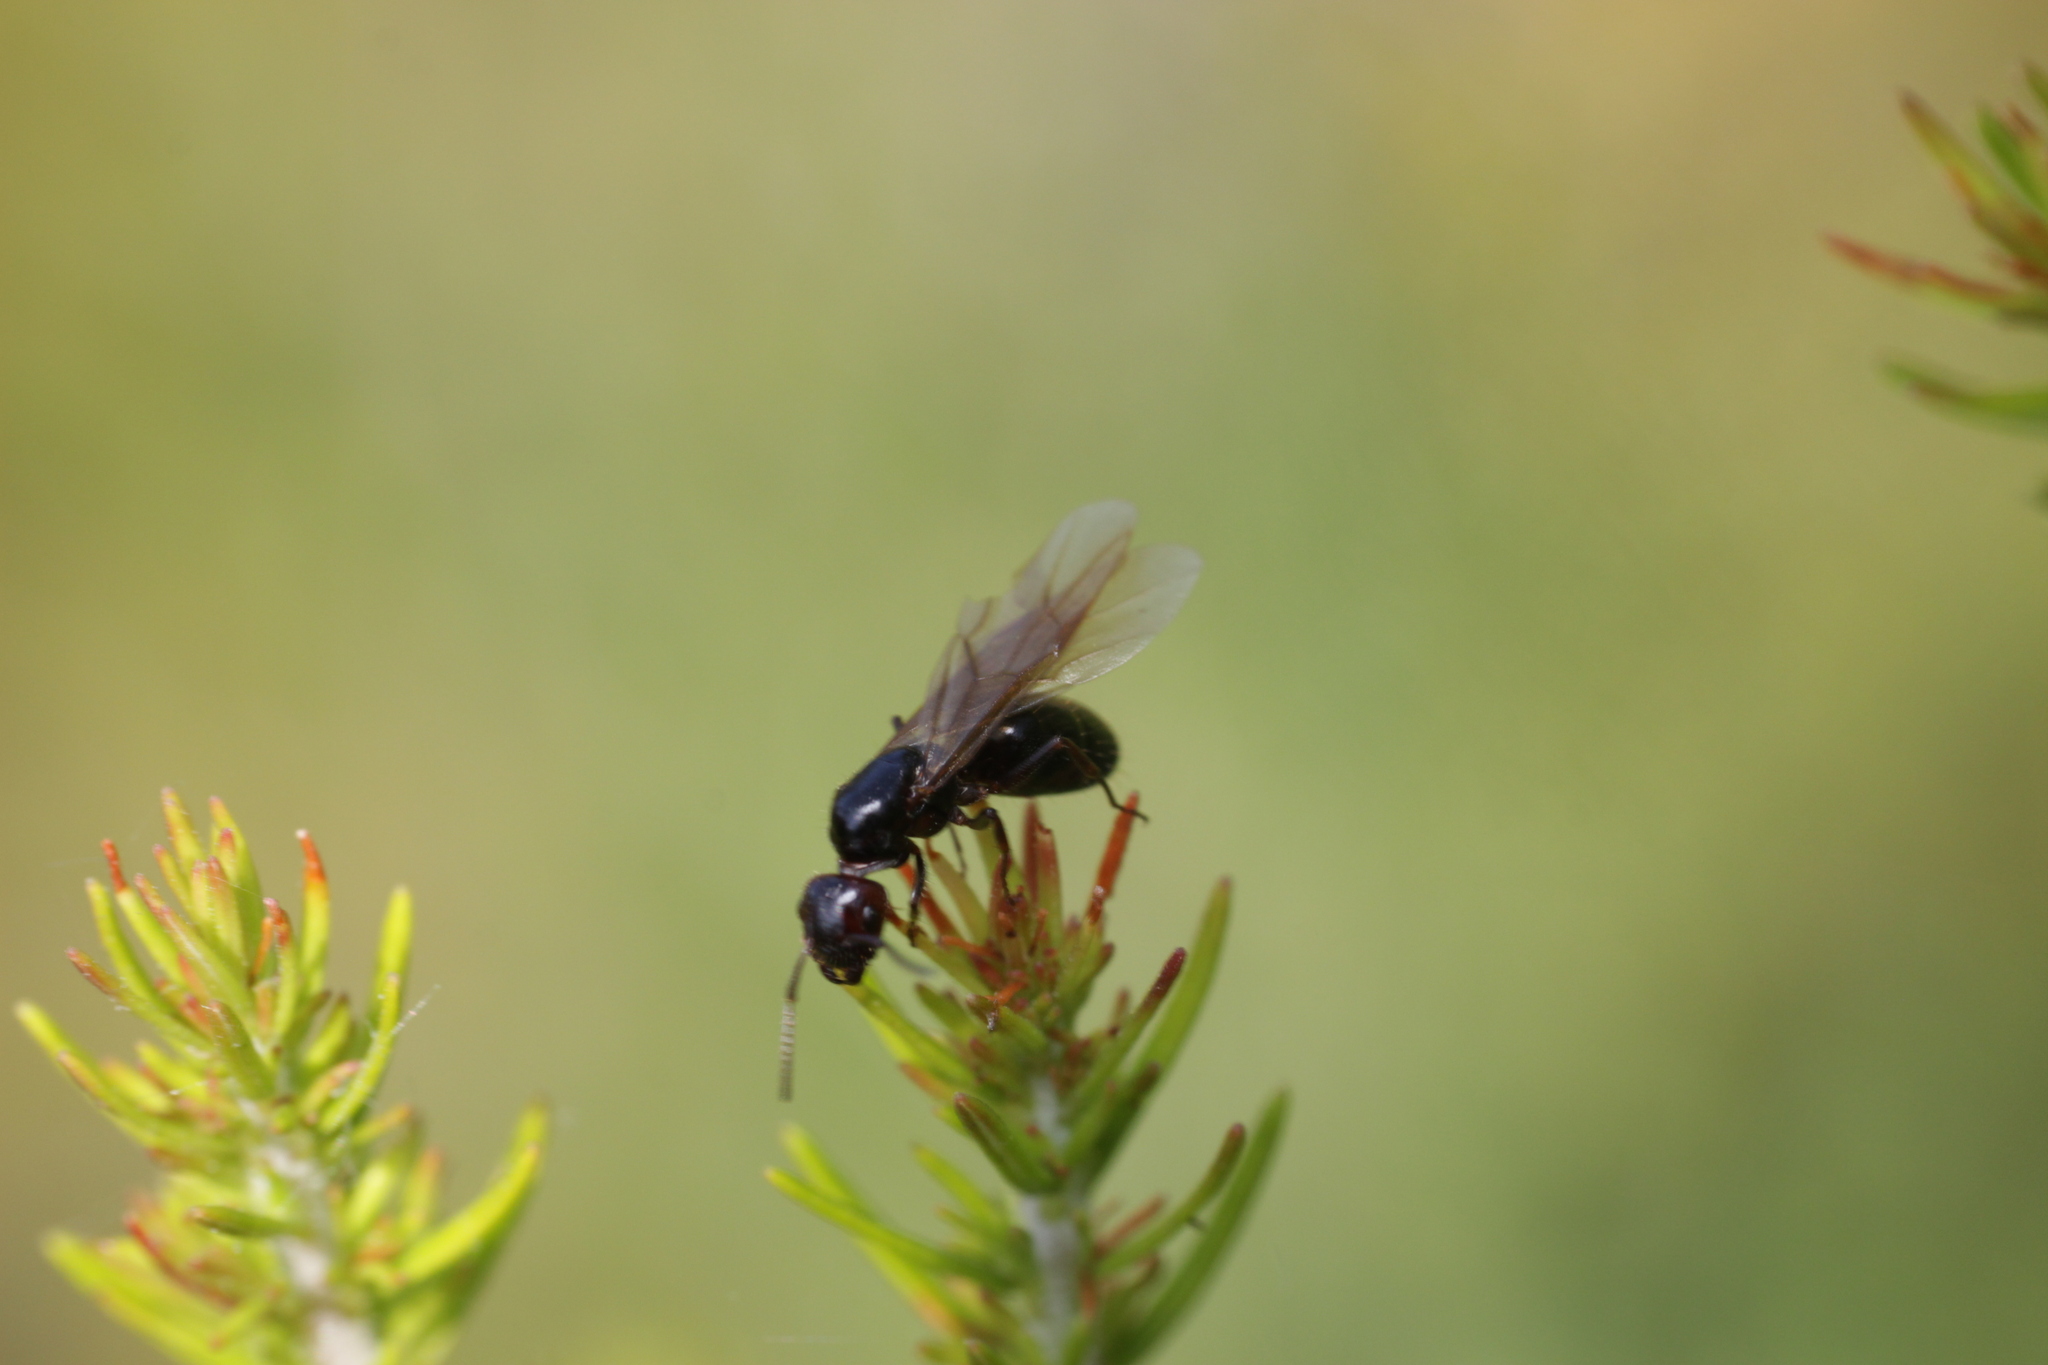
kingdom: Animalia
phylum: Arthropoda
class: Insecta
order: Hymenoptera
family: Formicidae
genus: Camponotus
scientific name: Camponotus lateralis
